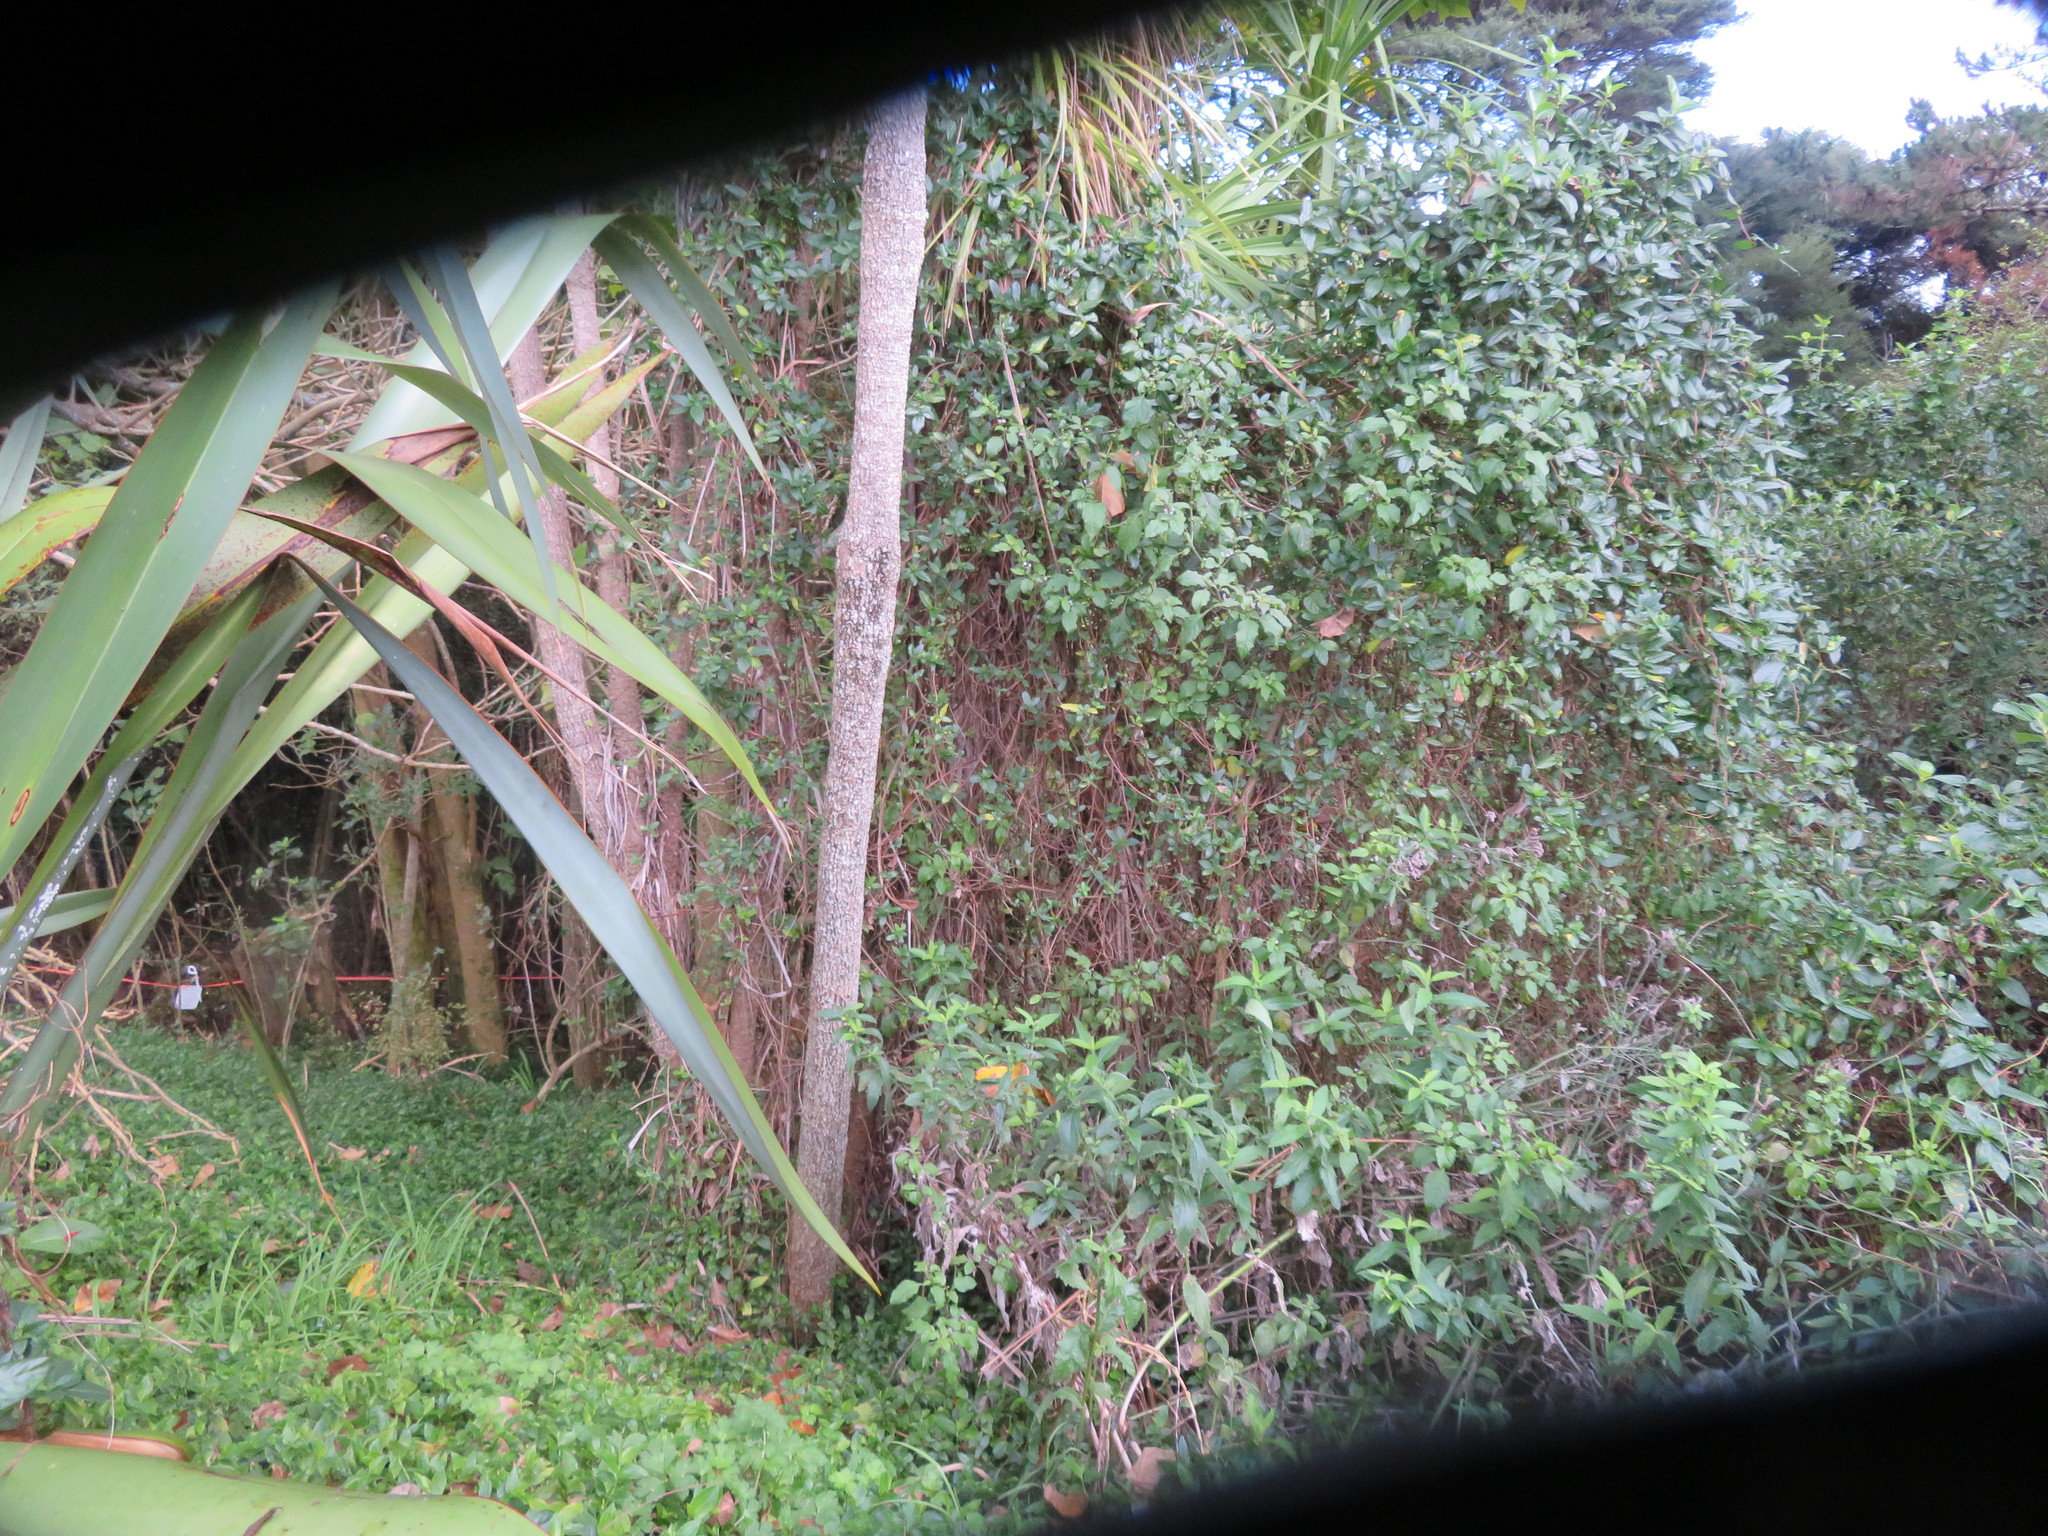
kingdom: Plantae
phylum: Tracheophyta
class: Liliopsida
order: Asparagales
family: Asparagaceae
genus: Cordyline
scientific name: Cordyline australis
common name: Cabbage-palm
